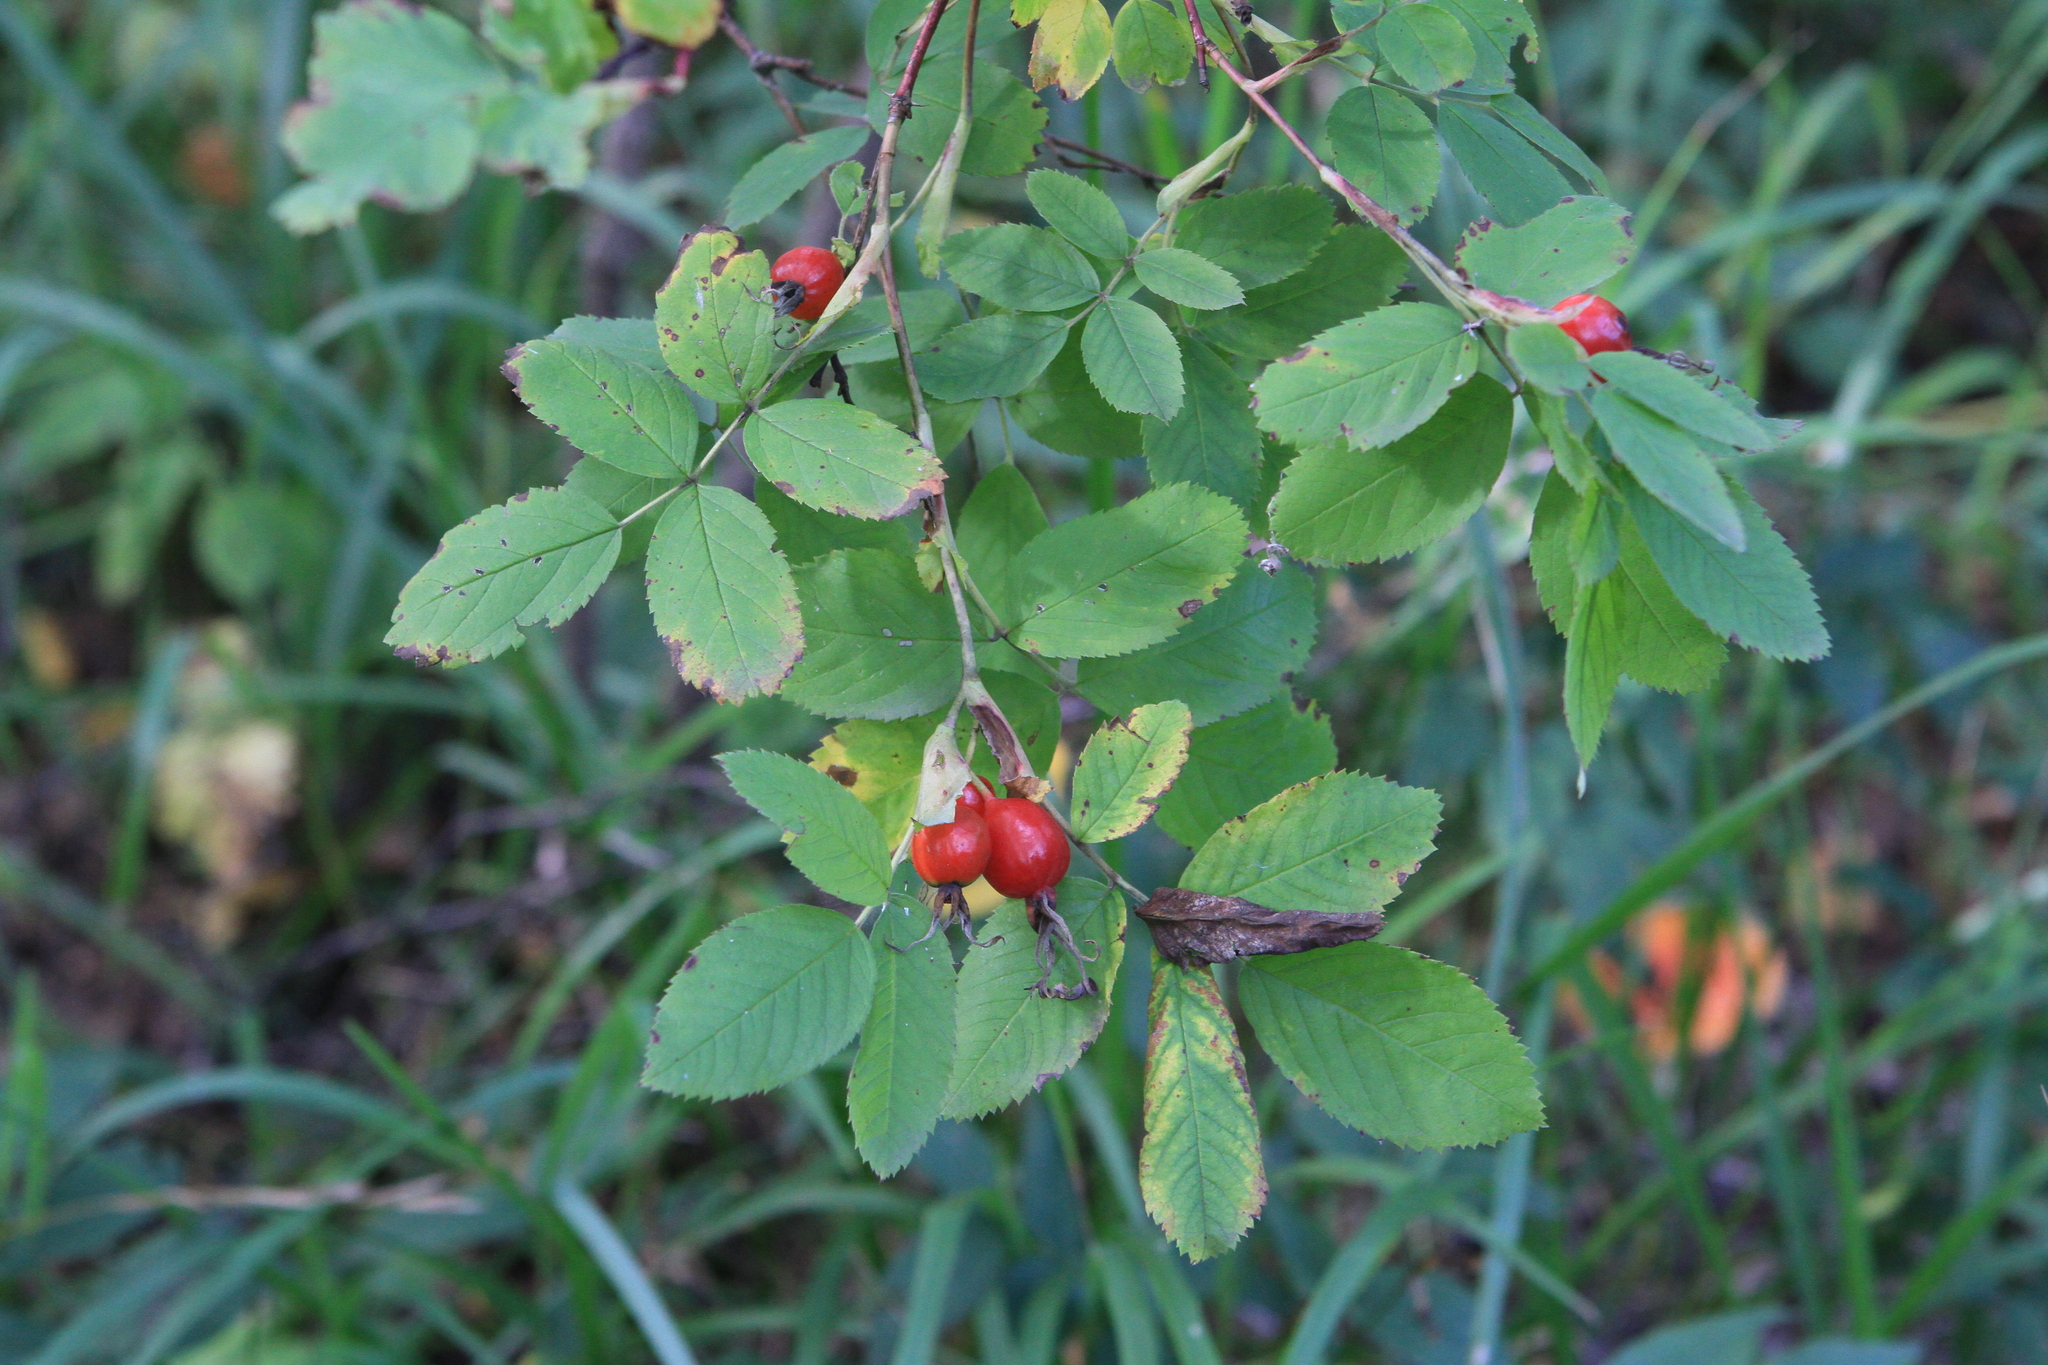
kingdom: Plantae
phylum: Tracheophyta
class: Magnoliopsida
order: Rosales
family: Rosaceae
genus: Rosa
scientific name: Rosa majalis
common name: Cinnamon rose
